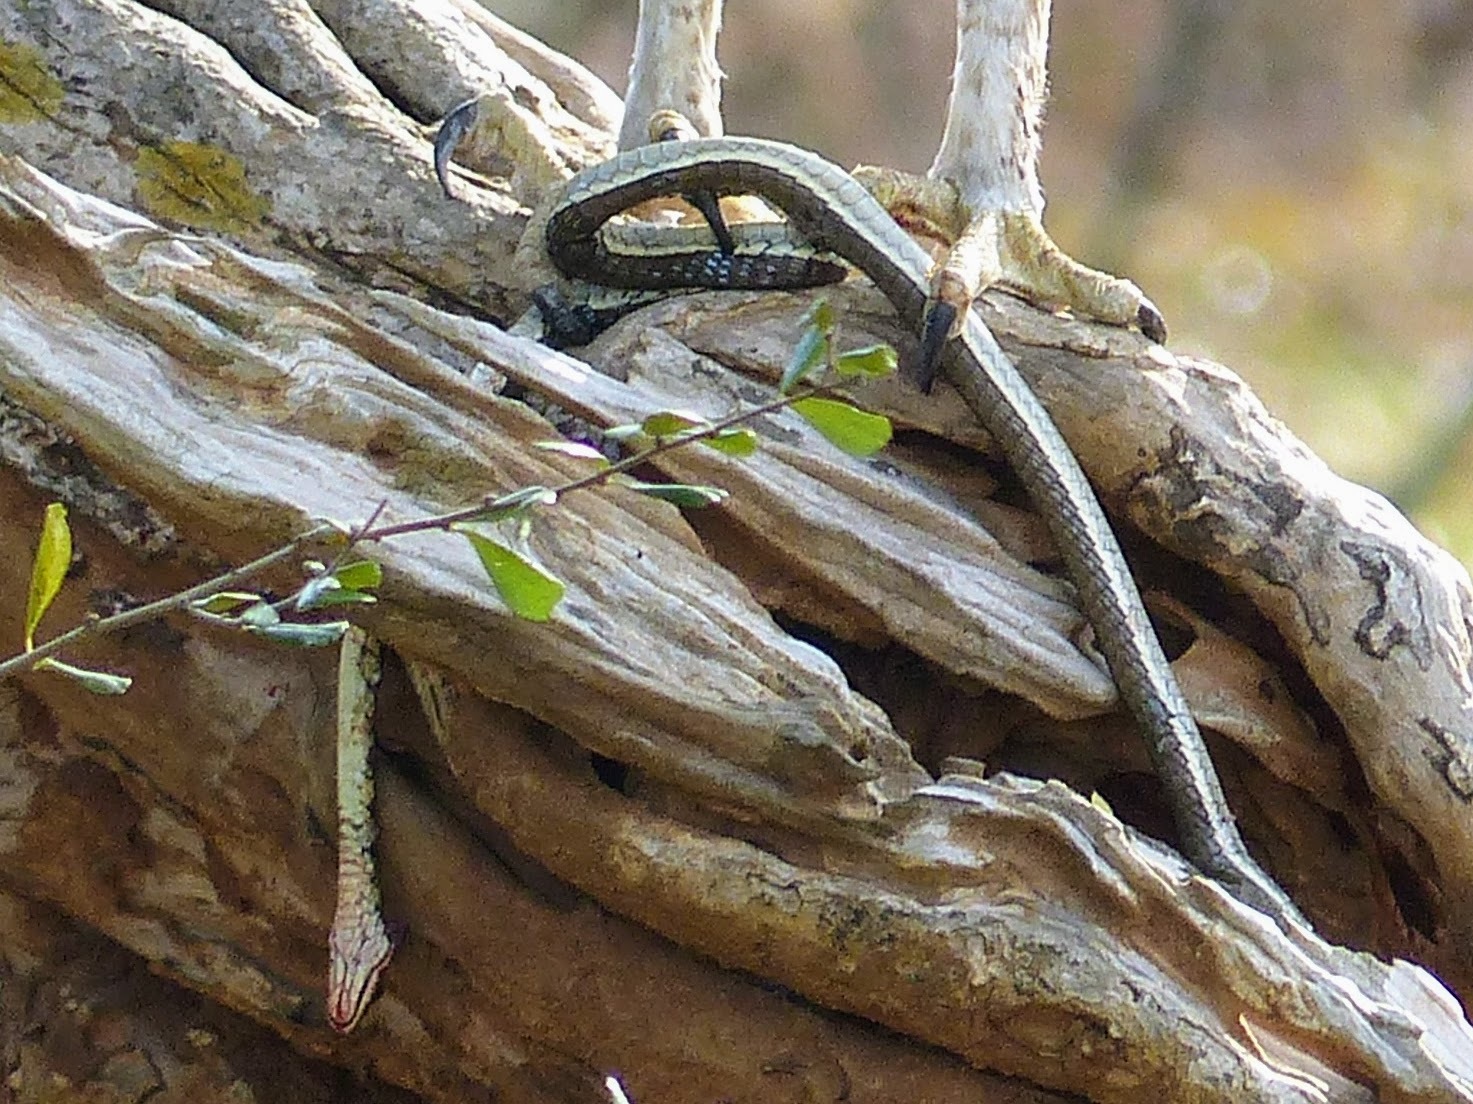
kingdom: Animalia
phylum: Chordata
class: Squamata
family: Colubridae
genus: Dendrelaphis
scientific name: Dendrelaphis tristis
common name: Daudin's bronzeback
